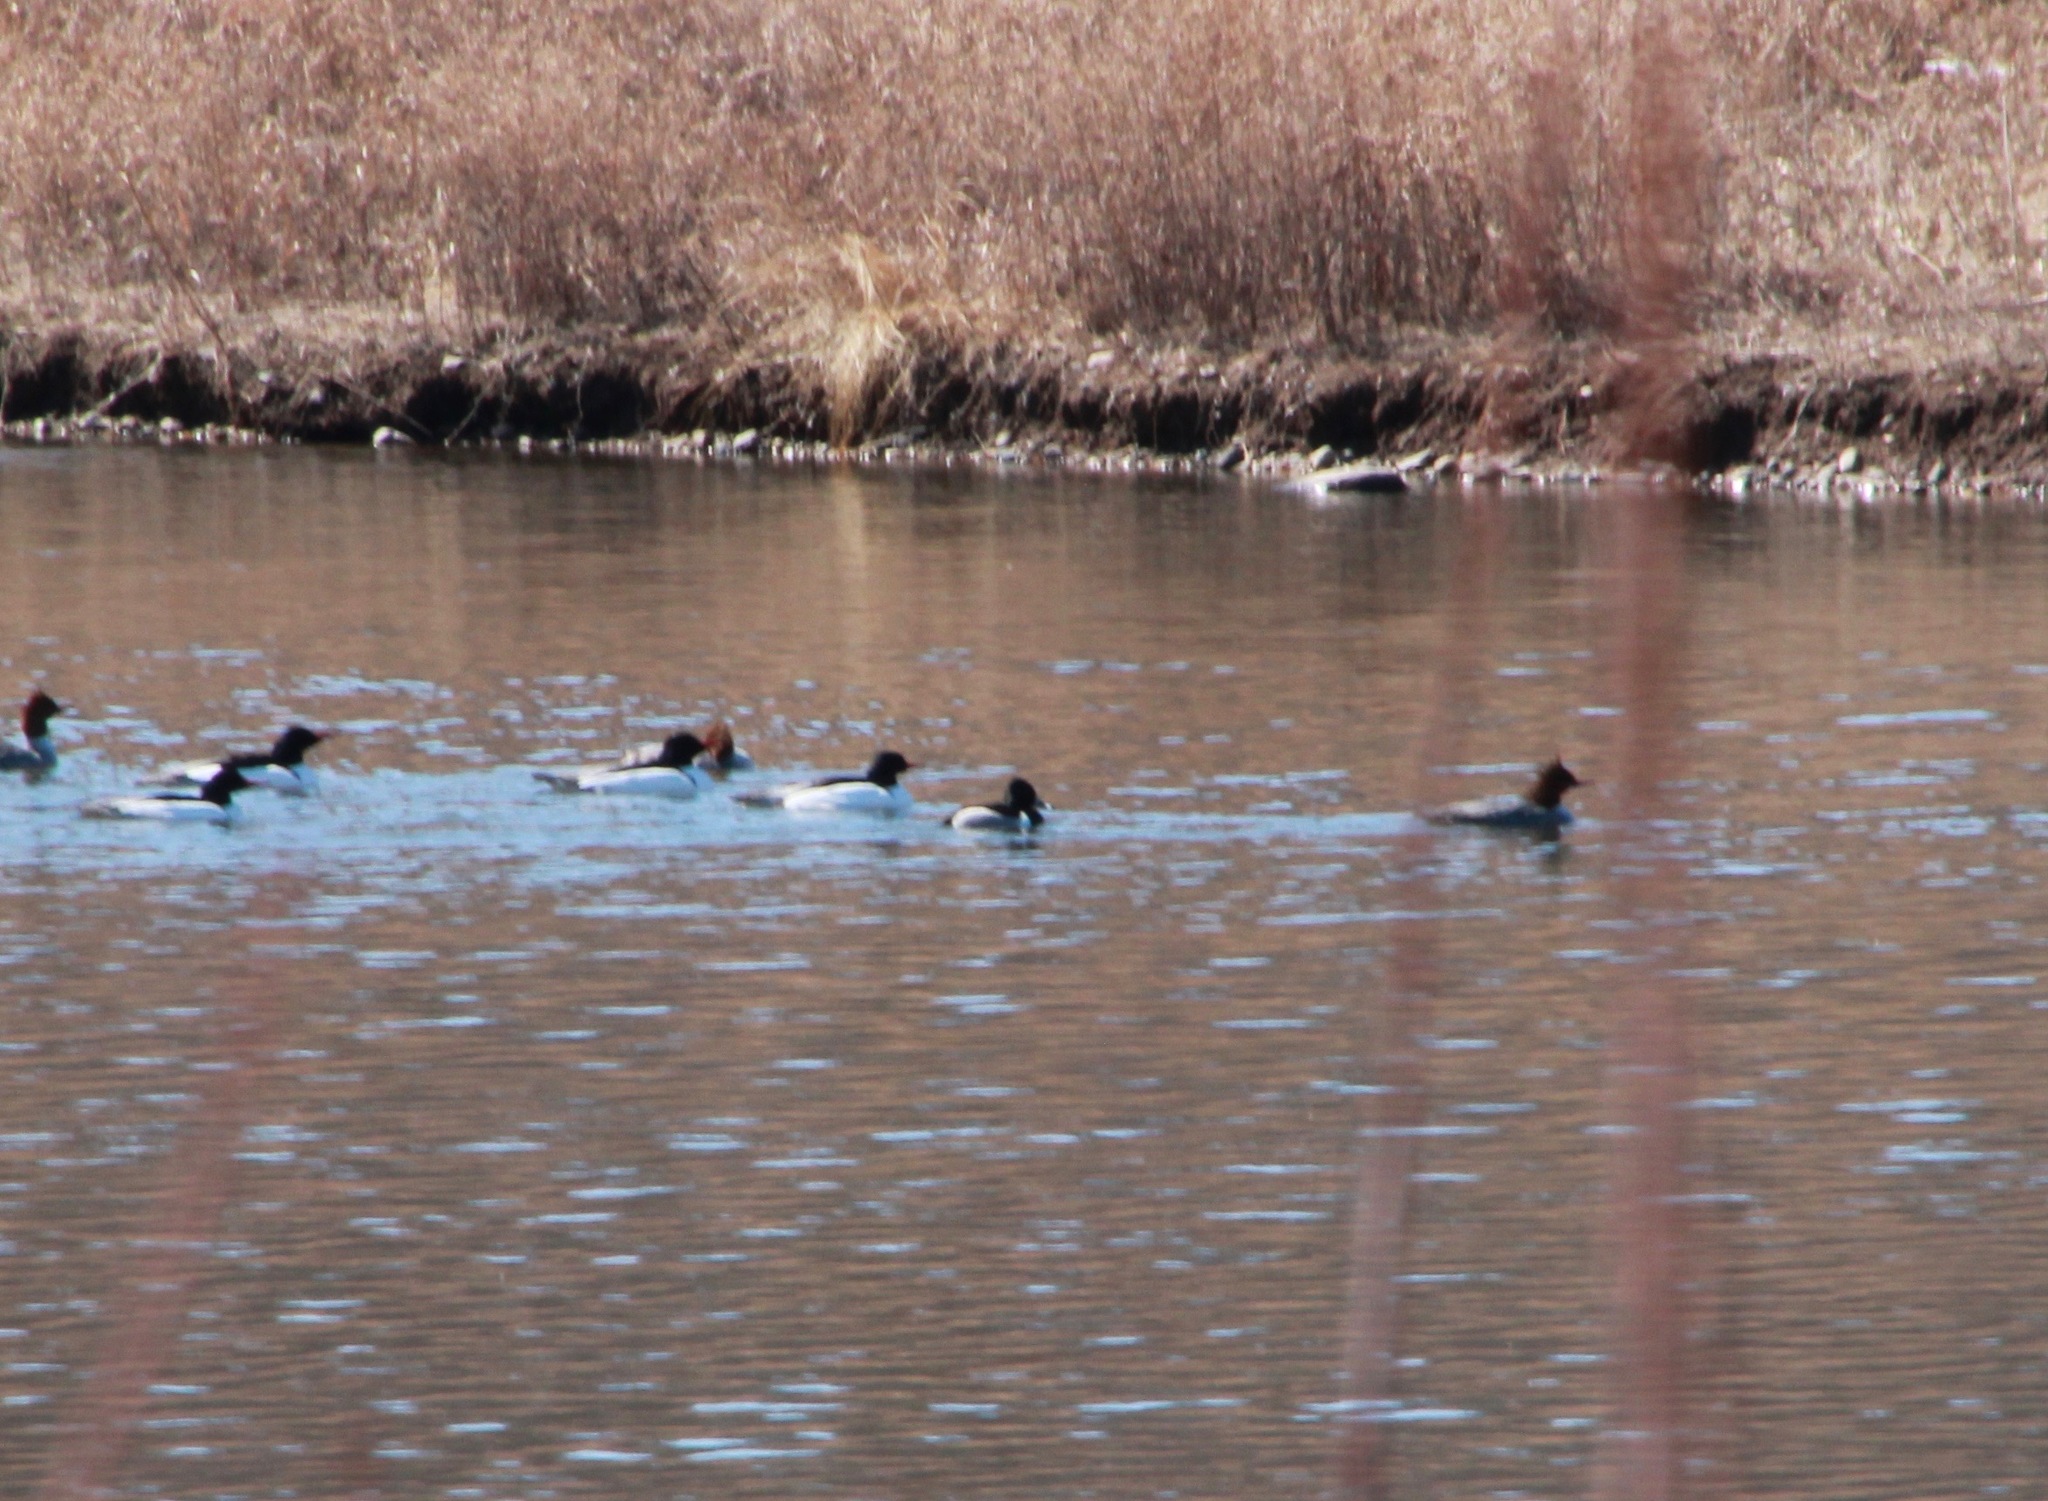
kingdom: Animalia
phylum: Chordata
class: Aves
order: Anseriformes
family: Anatidae
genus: Aythya
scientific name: Aythya collaris
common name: Ring-necked duck
